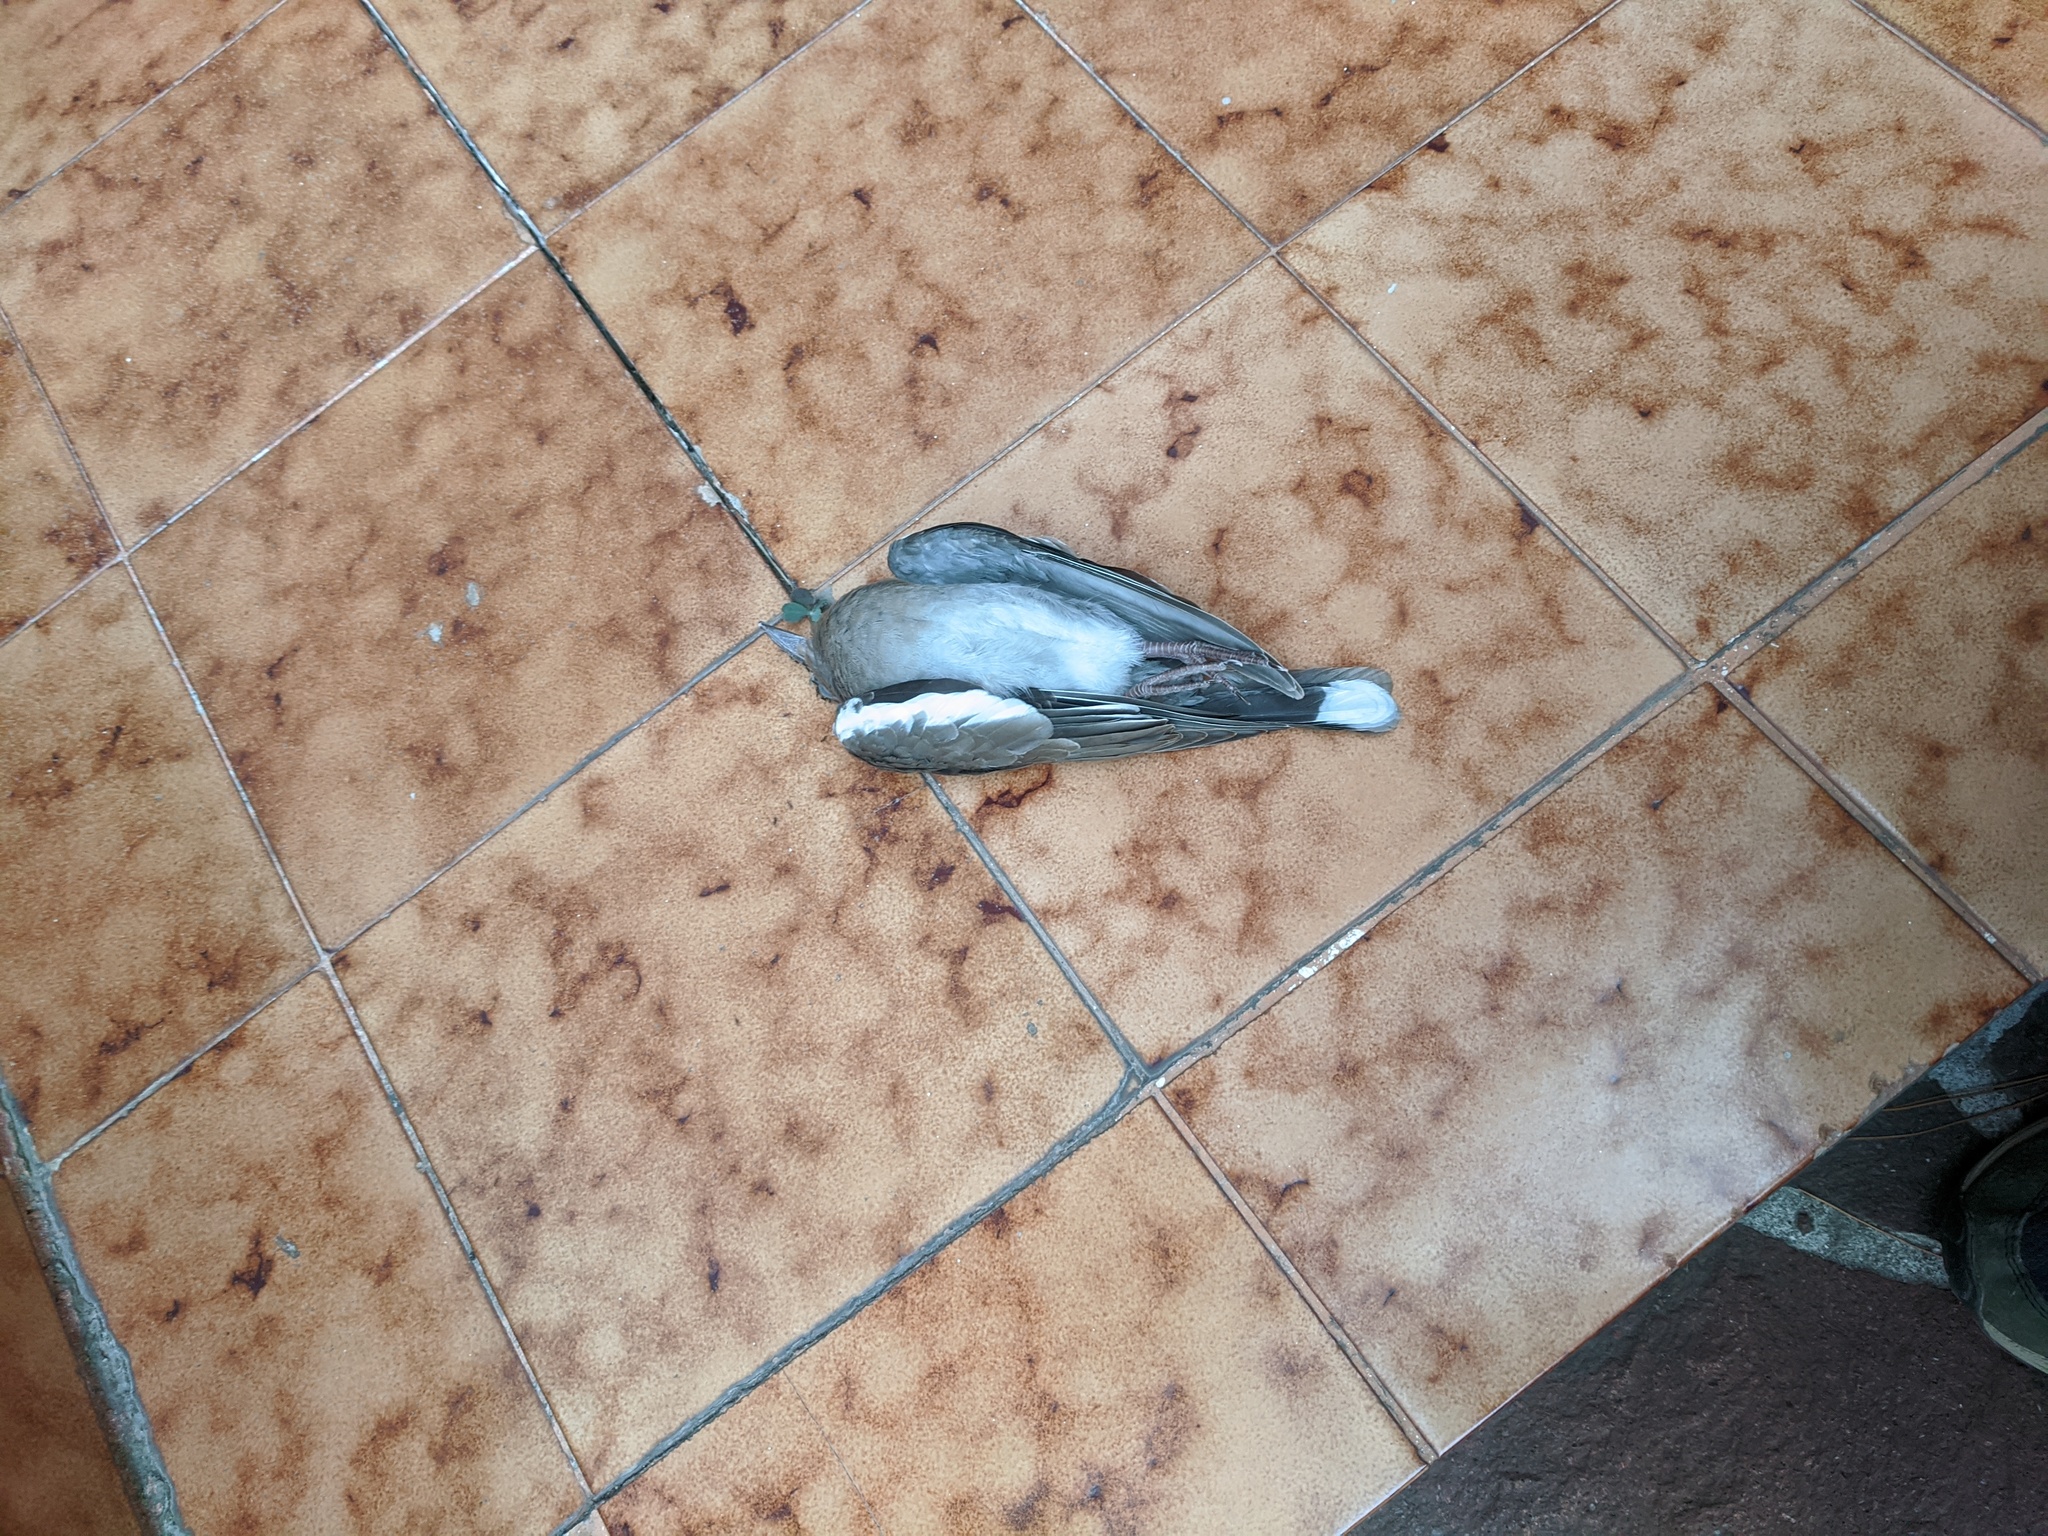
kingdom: Animalia
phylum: Chordata
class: Aves
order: Columbiformes
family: Columbidae
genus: Zenaida
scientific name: Zenaida asiatica
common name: White-winged dove
